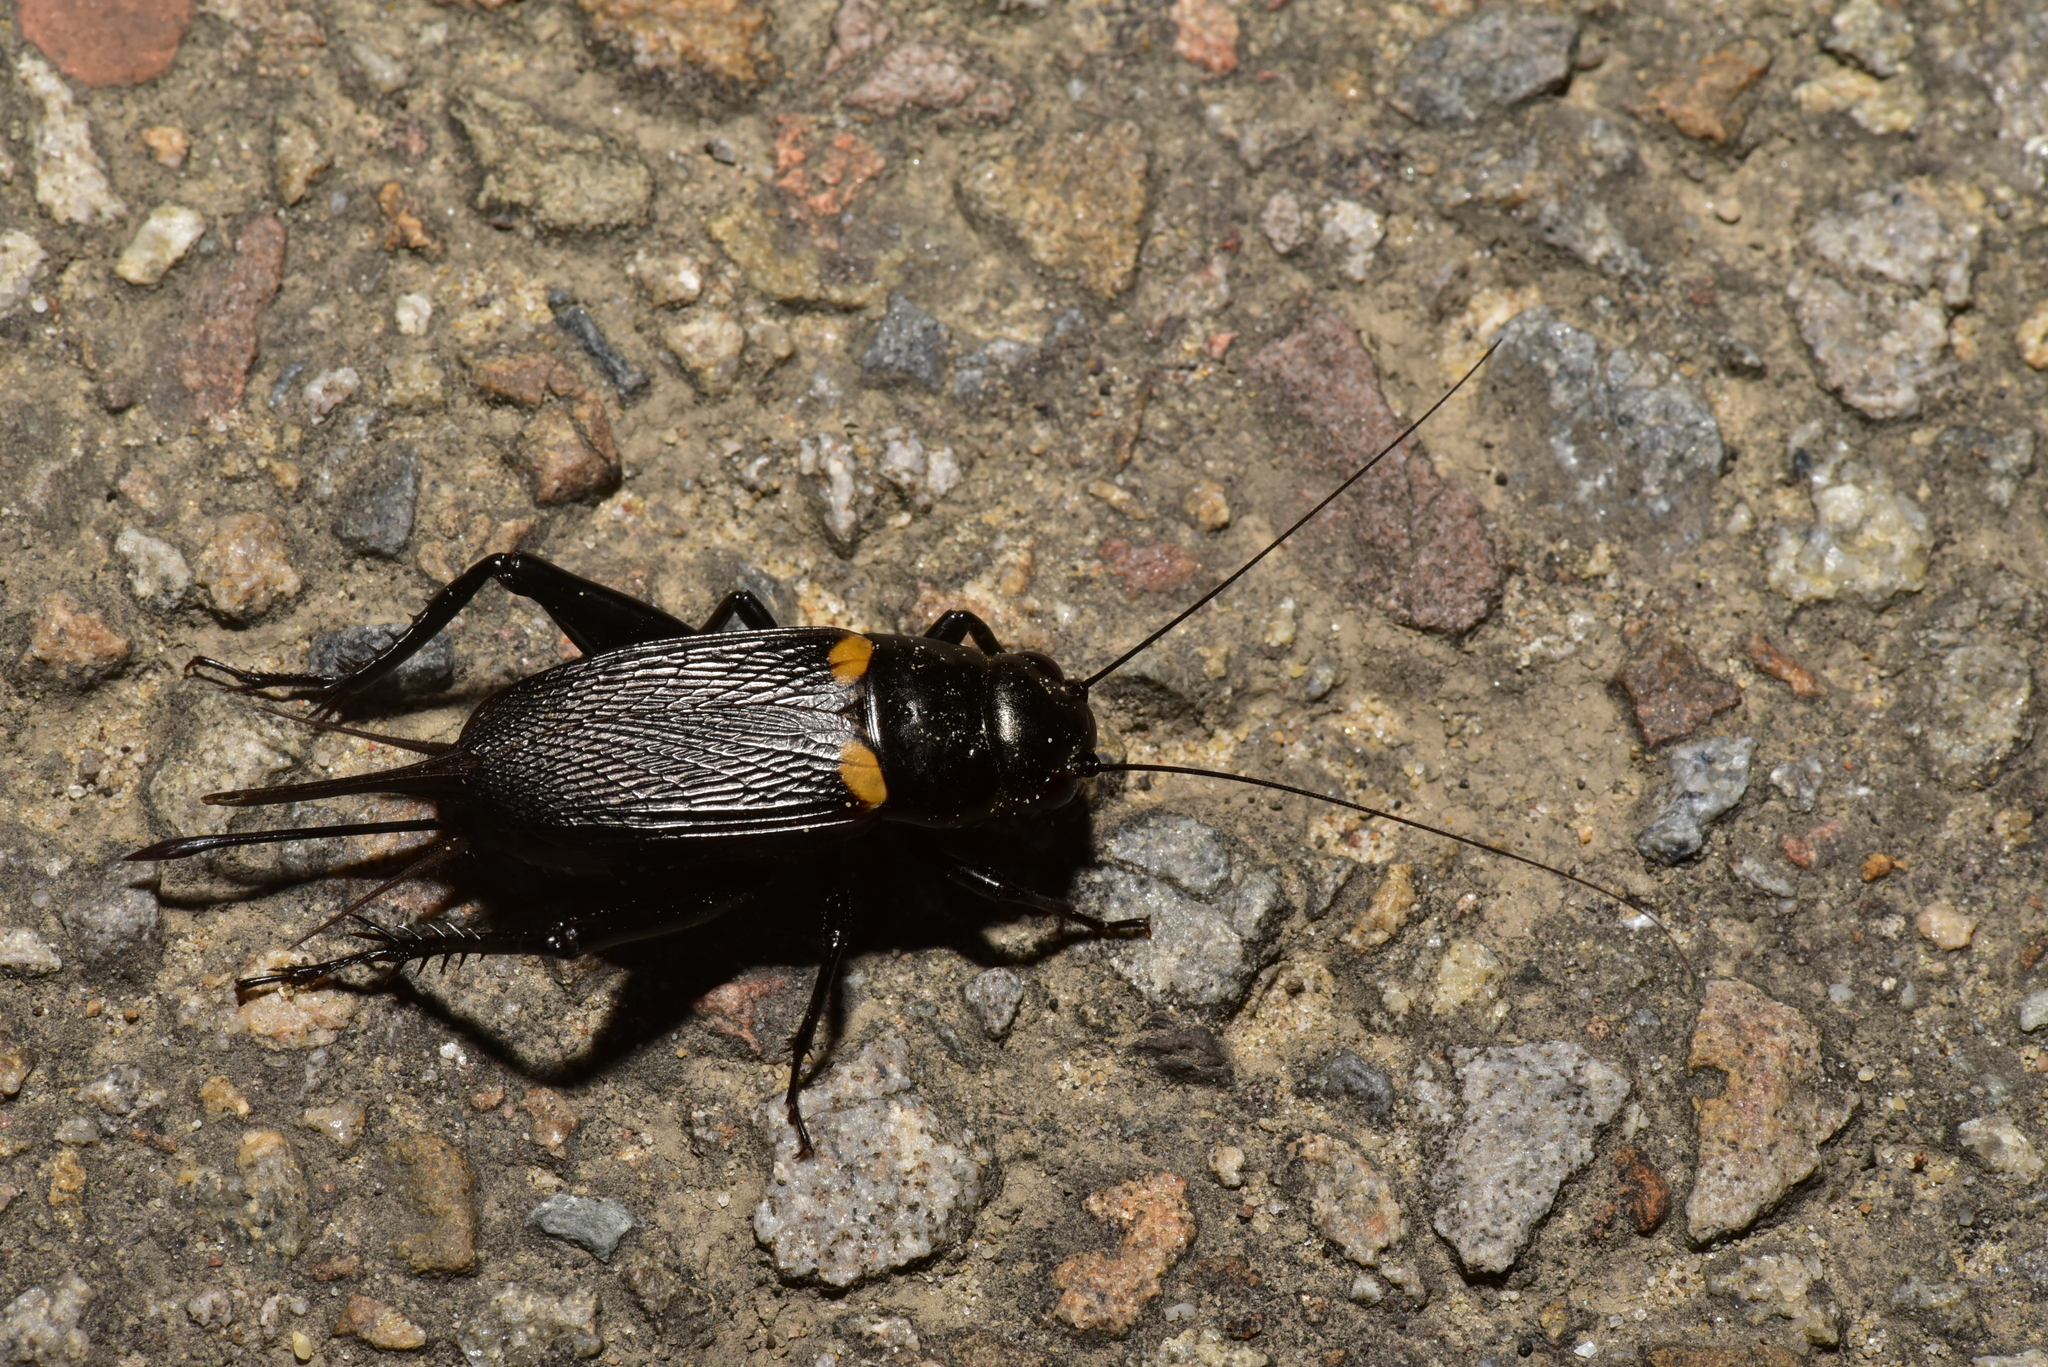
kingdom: Animalia
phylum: Arthropoda
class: Insecta
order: Orthoptera
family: Gryllidae
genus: Gryllus
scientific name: Gryllus bimaculatus
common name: Two-spotted cricket
